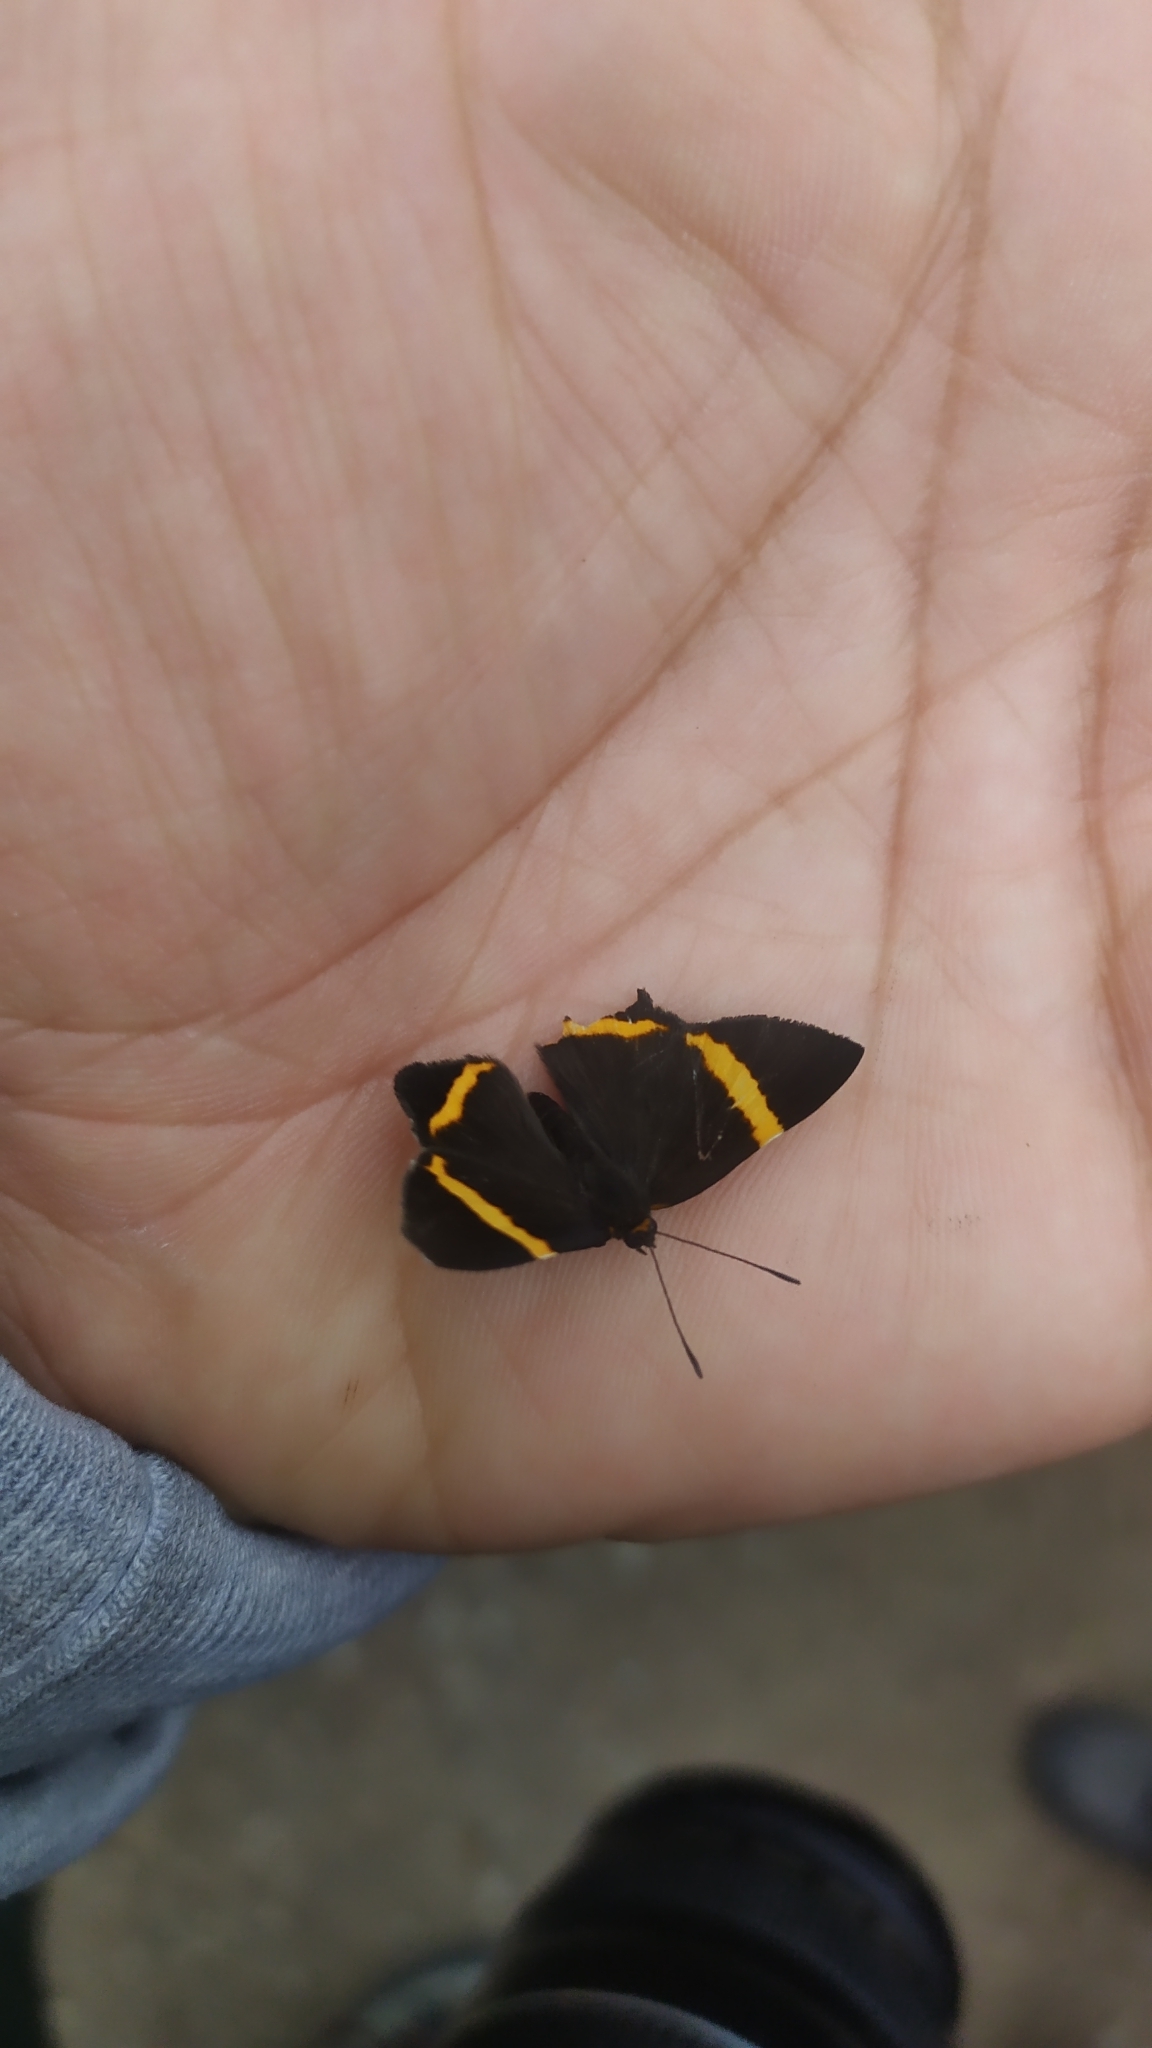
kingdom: Animalia
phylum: Arthropoda
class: Insecta
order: Lepidoptera
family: Riodinidae
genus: Riodina
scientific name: Riodina lysippoides
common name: Little dancer metalmark
